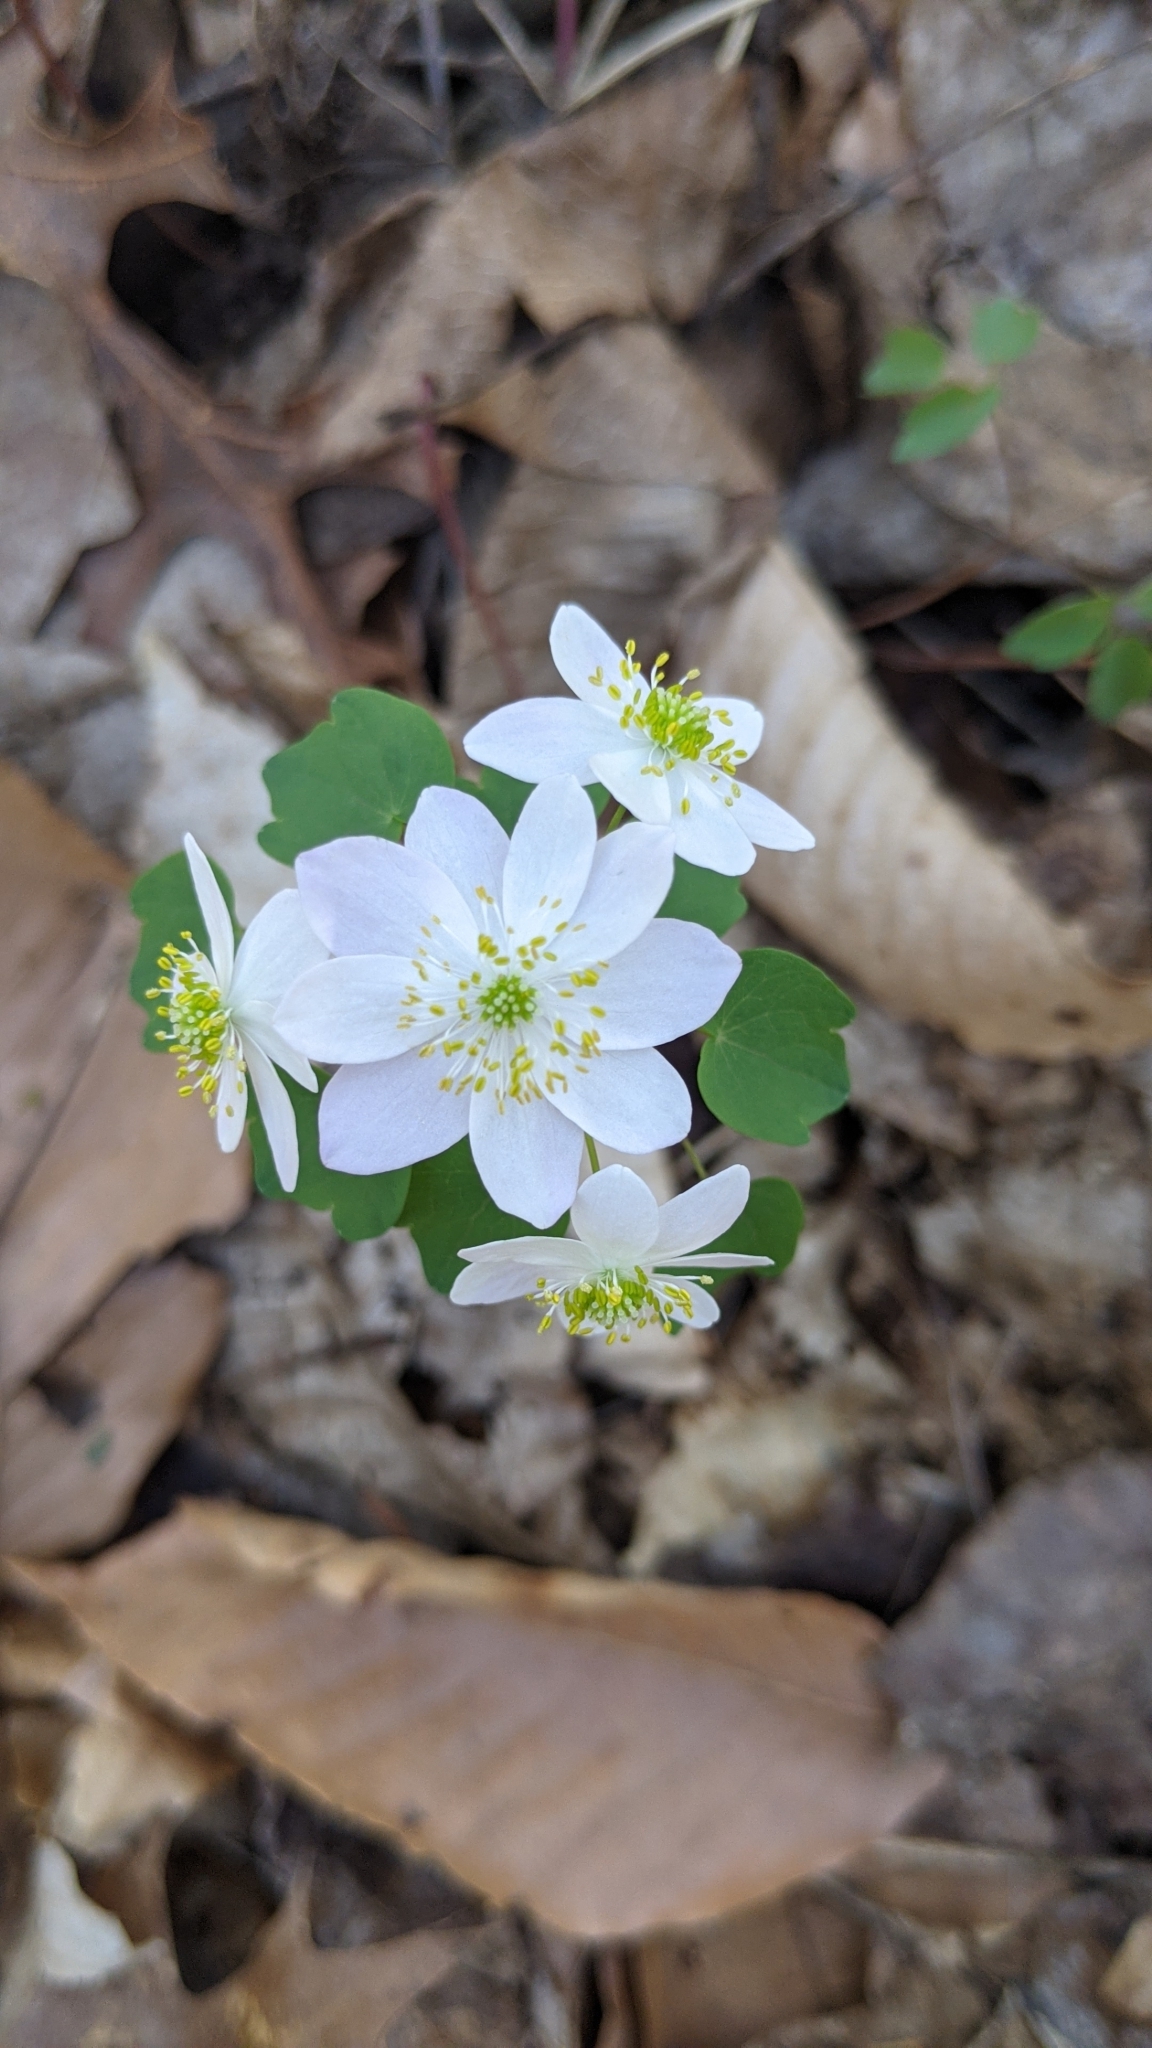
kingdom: Plantae
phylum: Tracheophyta
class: Magnoliopsida
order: Ranunculales
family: Ranunculaceae
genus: Thalictrum
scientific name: Thalictrum thalictroides
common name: Rue-anemone
